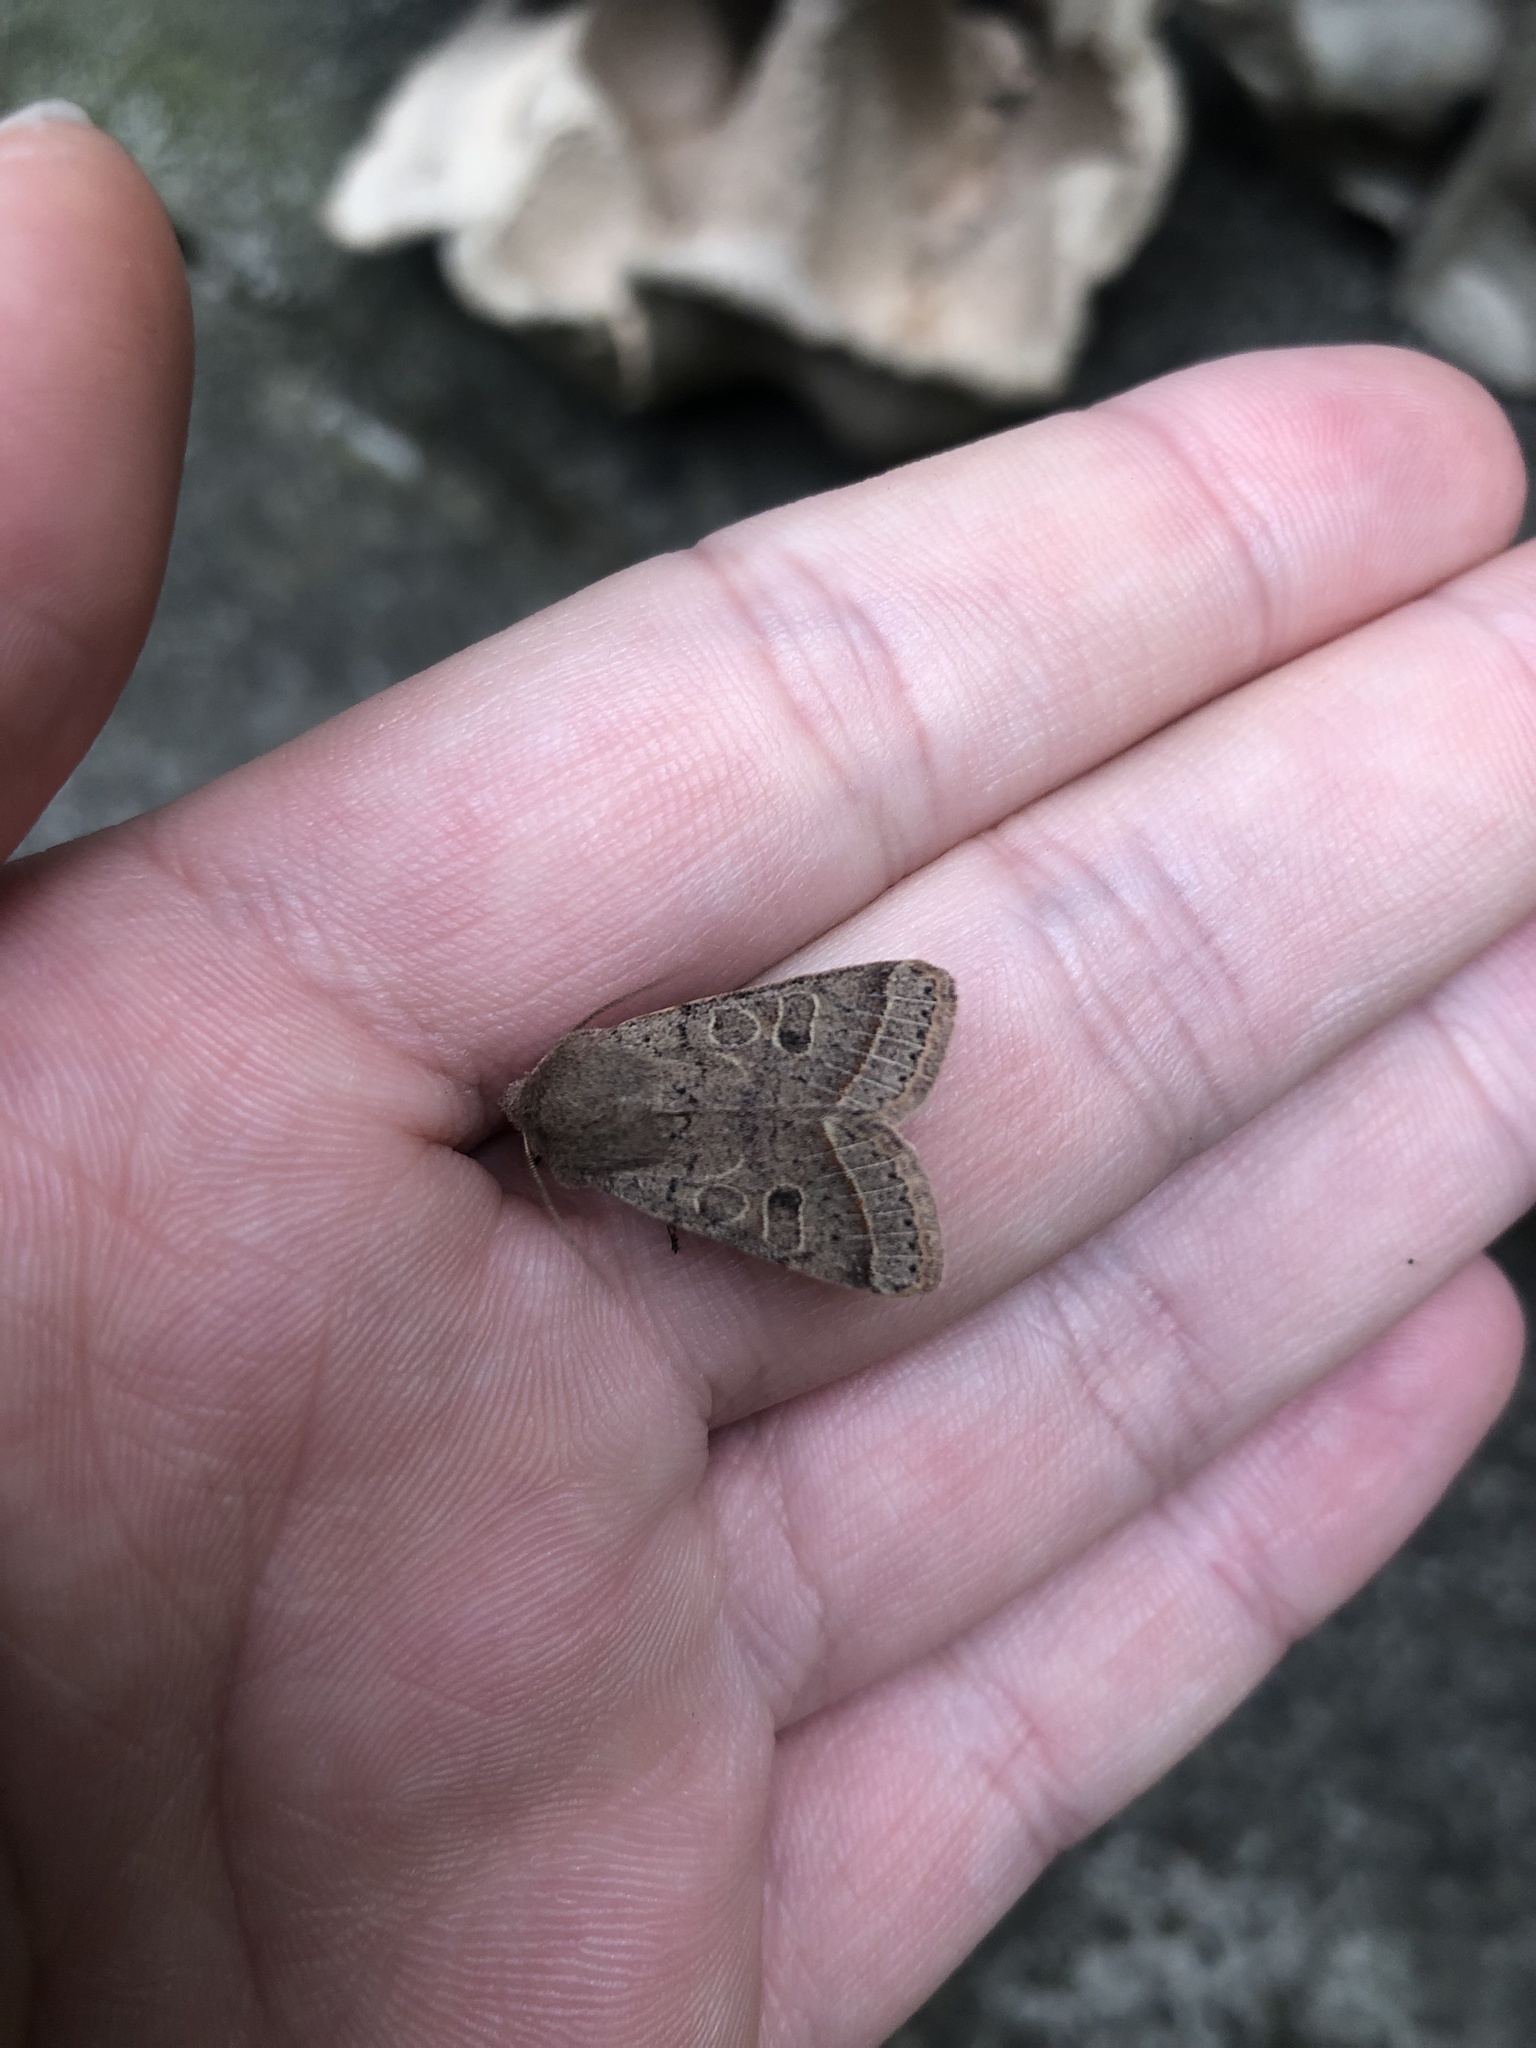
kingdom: Animalia
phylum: Arthropoda
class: Insecta
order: Lepidoptera
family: Noctuidae
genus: Orthosia
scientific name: Orthosia cerasi
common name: Common quaker
